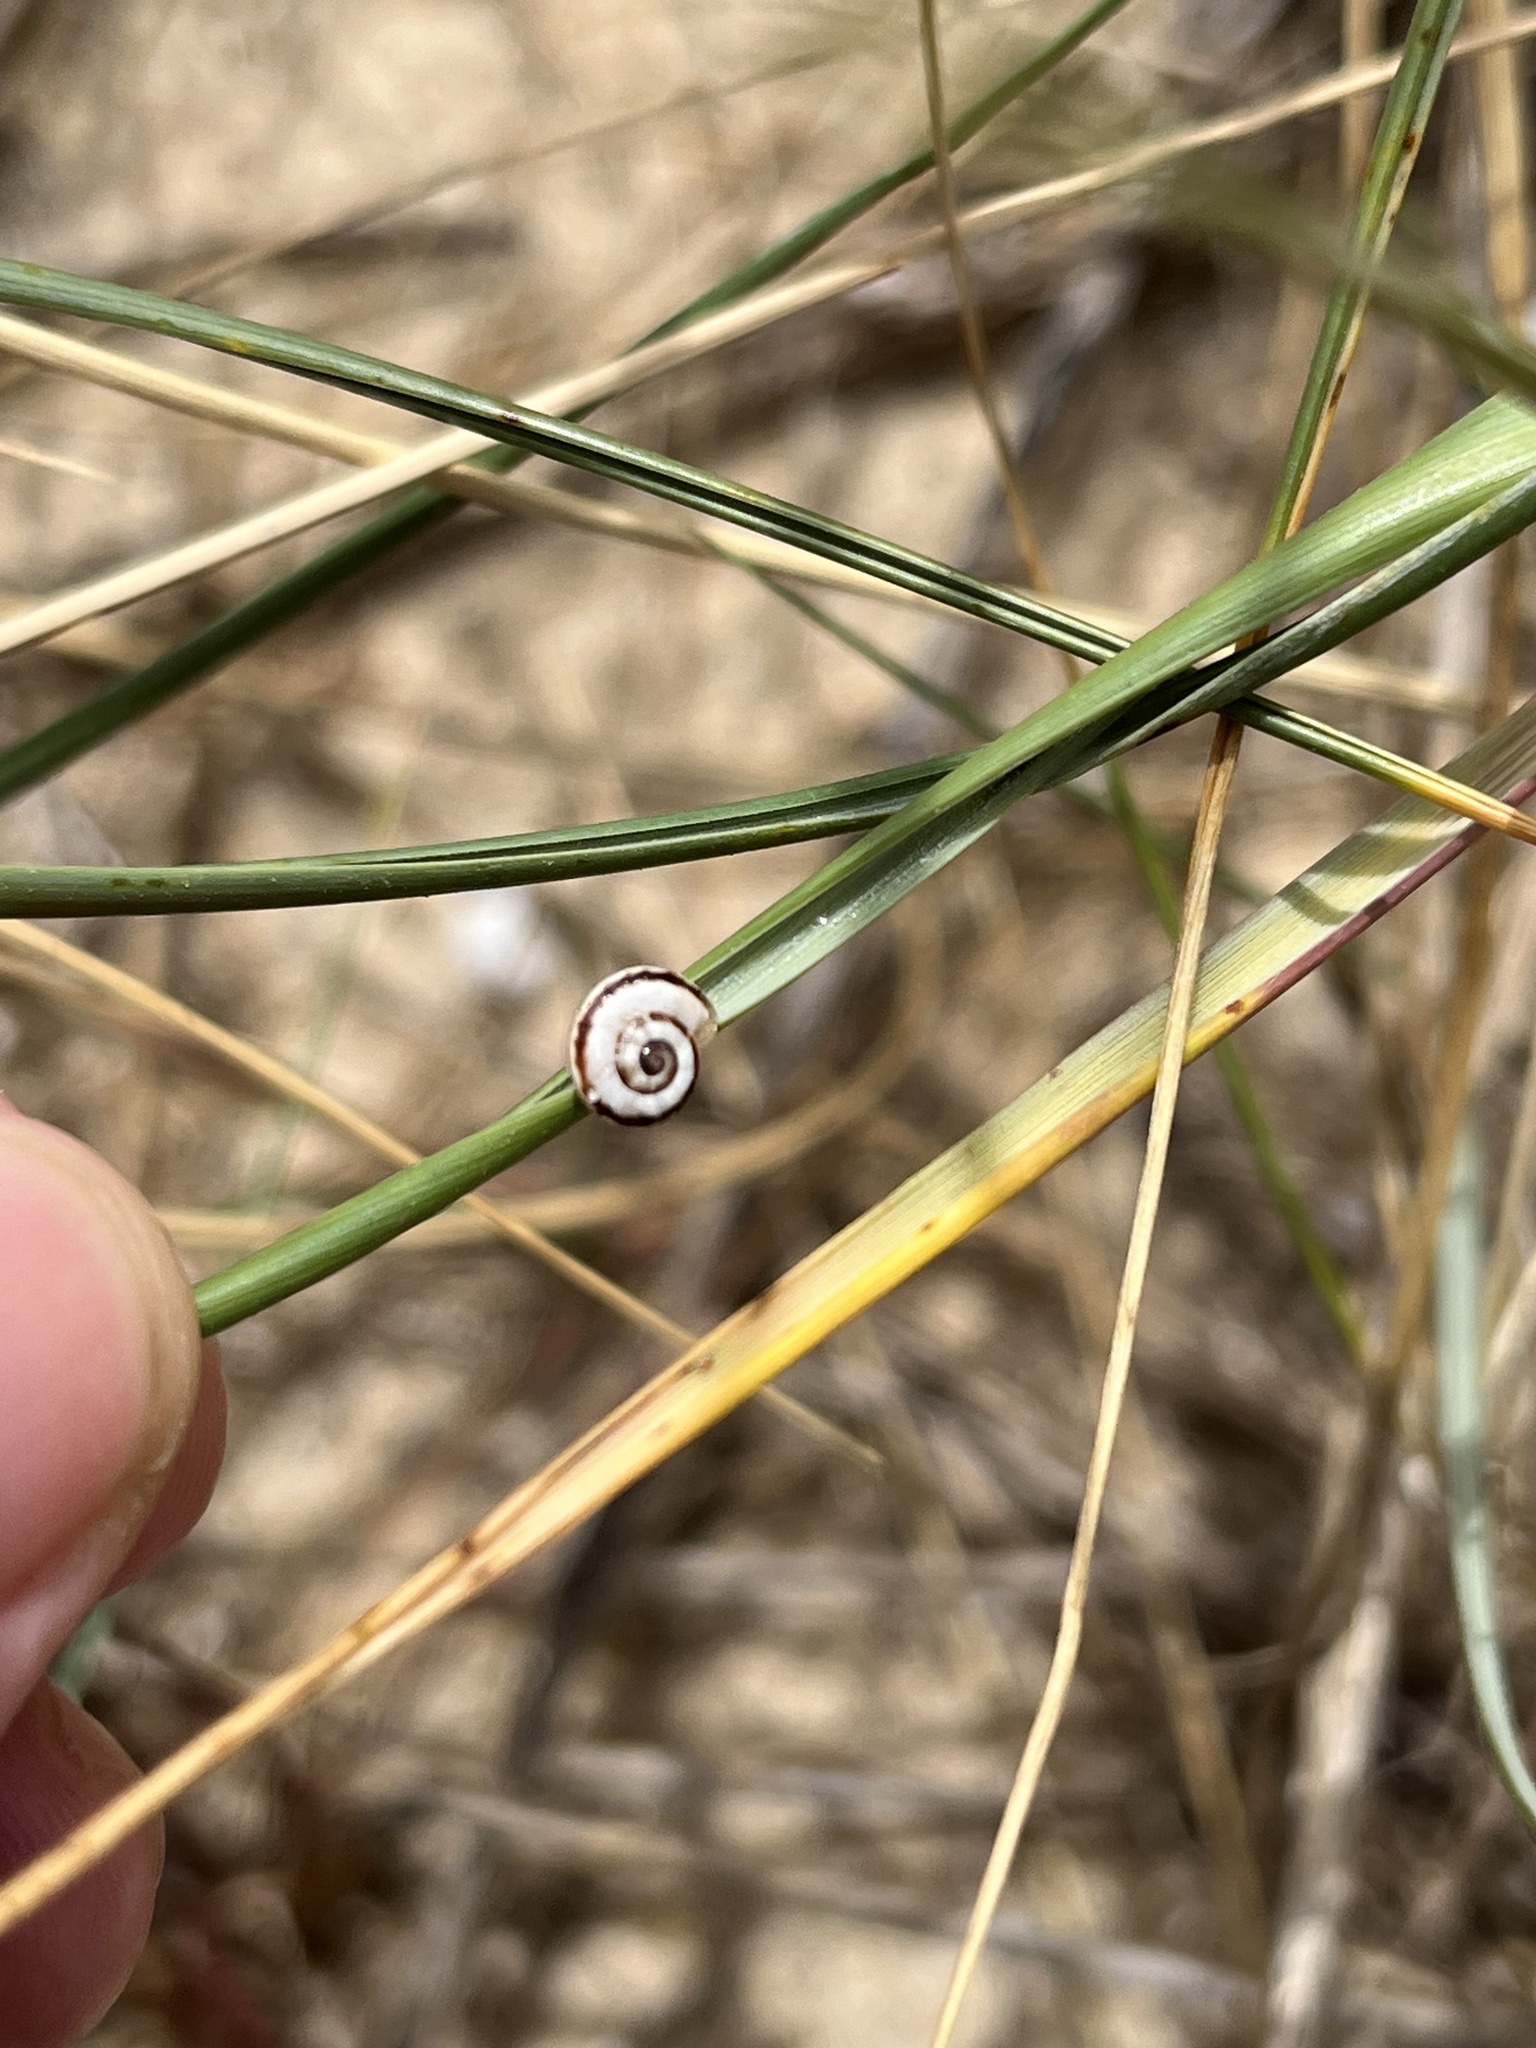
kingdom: Animalia
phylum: Mollusca
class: Gastropoda
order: Stylommatophora
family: Helicidae
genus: Theba
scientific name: Theba pisana
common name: White snail
